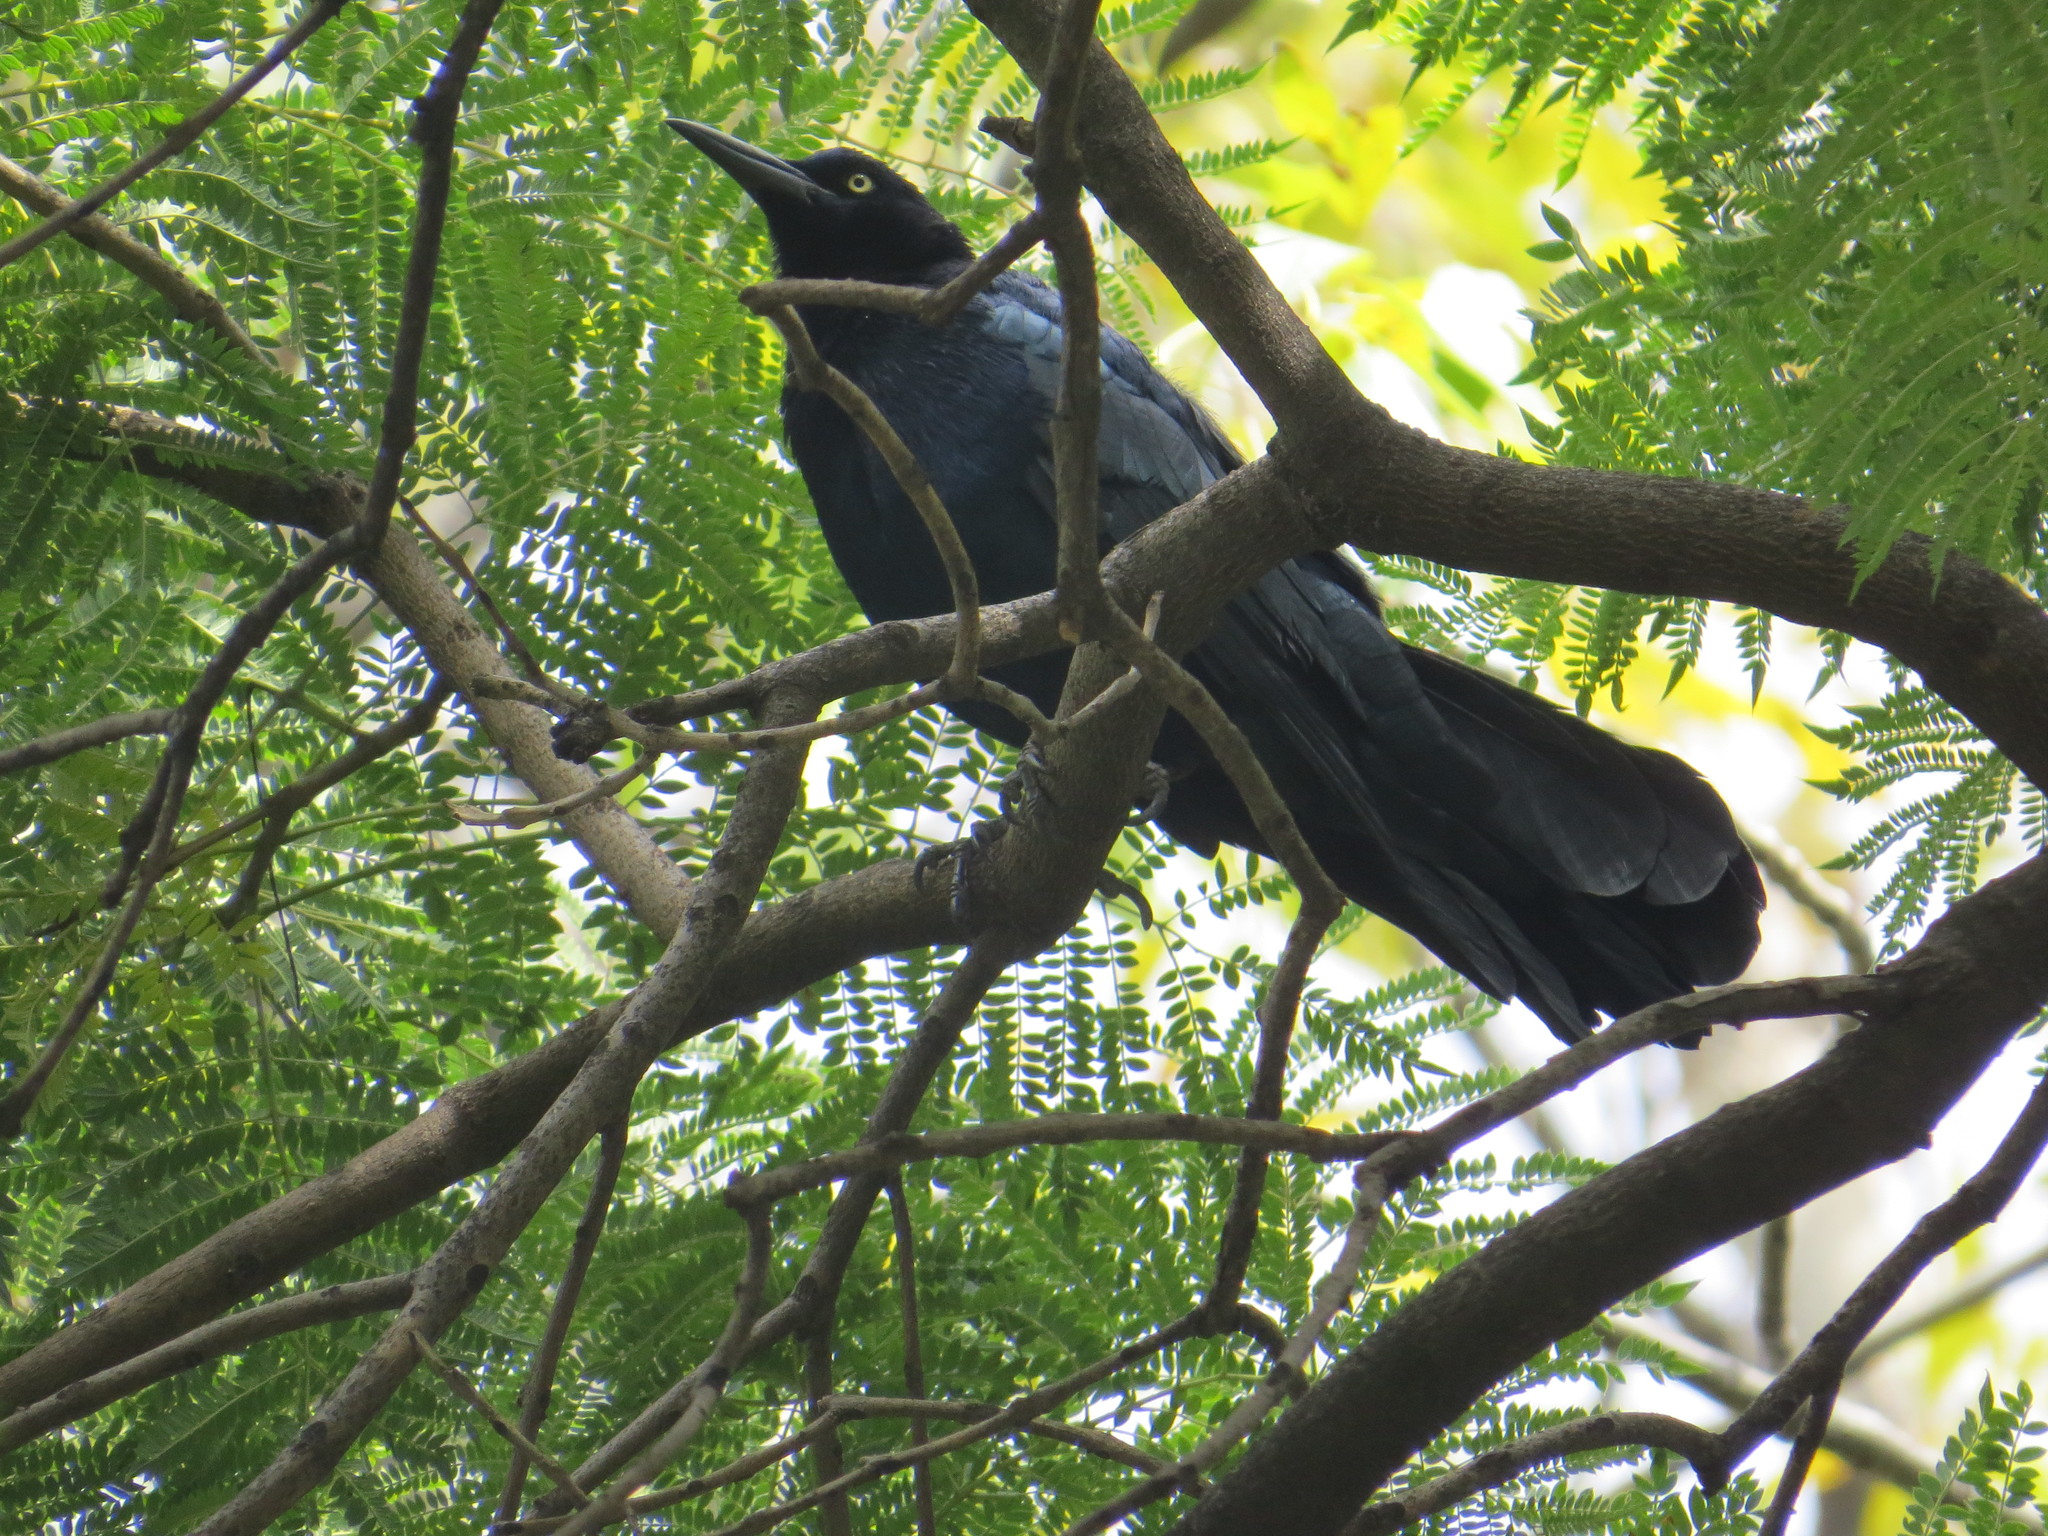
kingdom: Animalia
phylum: Chordata
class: Aves
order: Passeriformes
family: Icteridae
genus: Quiscalus
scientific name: Quiscalus mexicanus
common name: Great-tailed grackle
